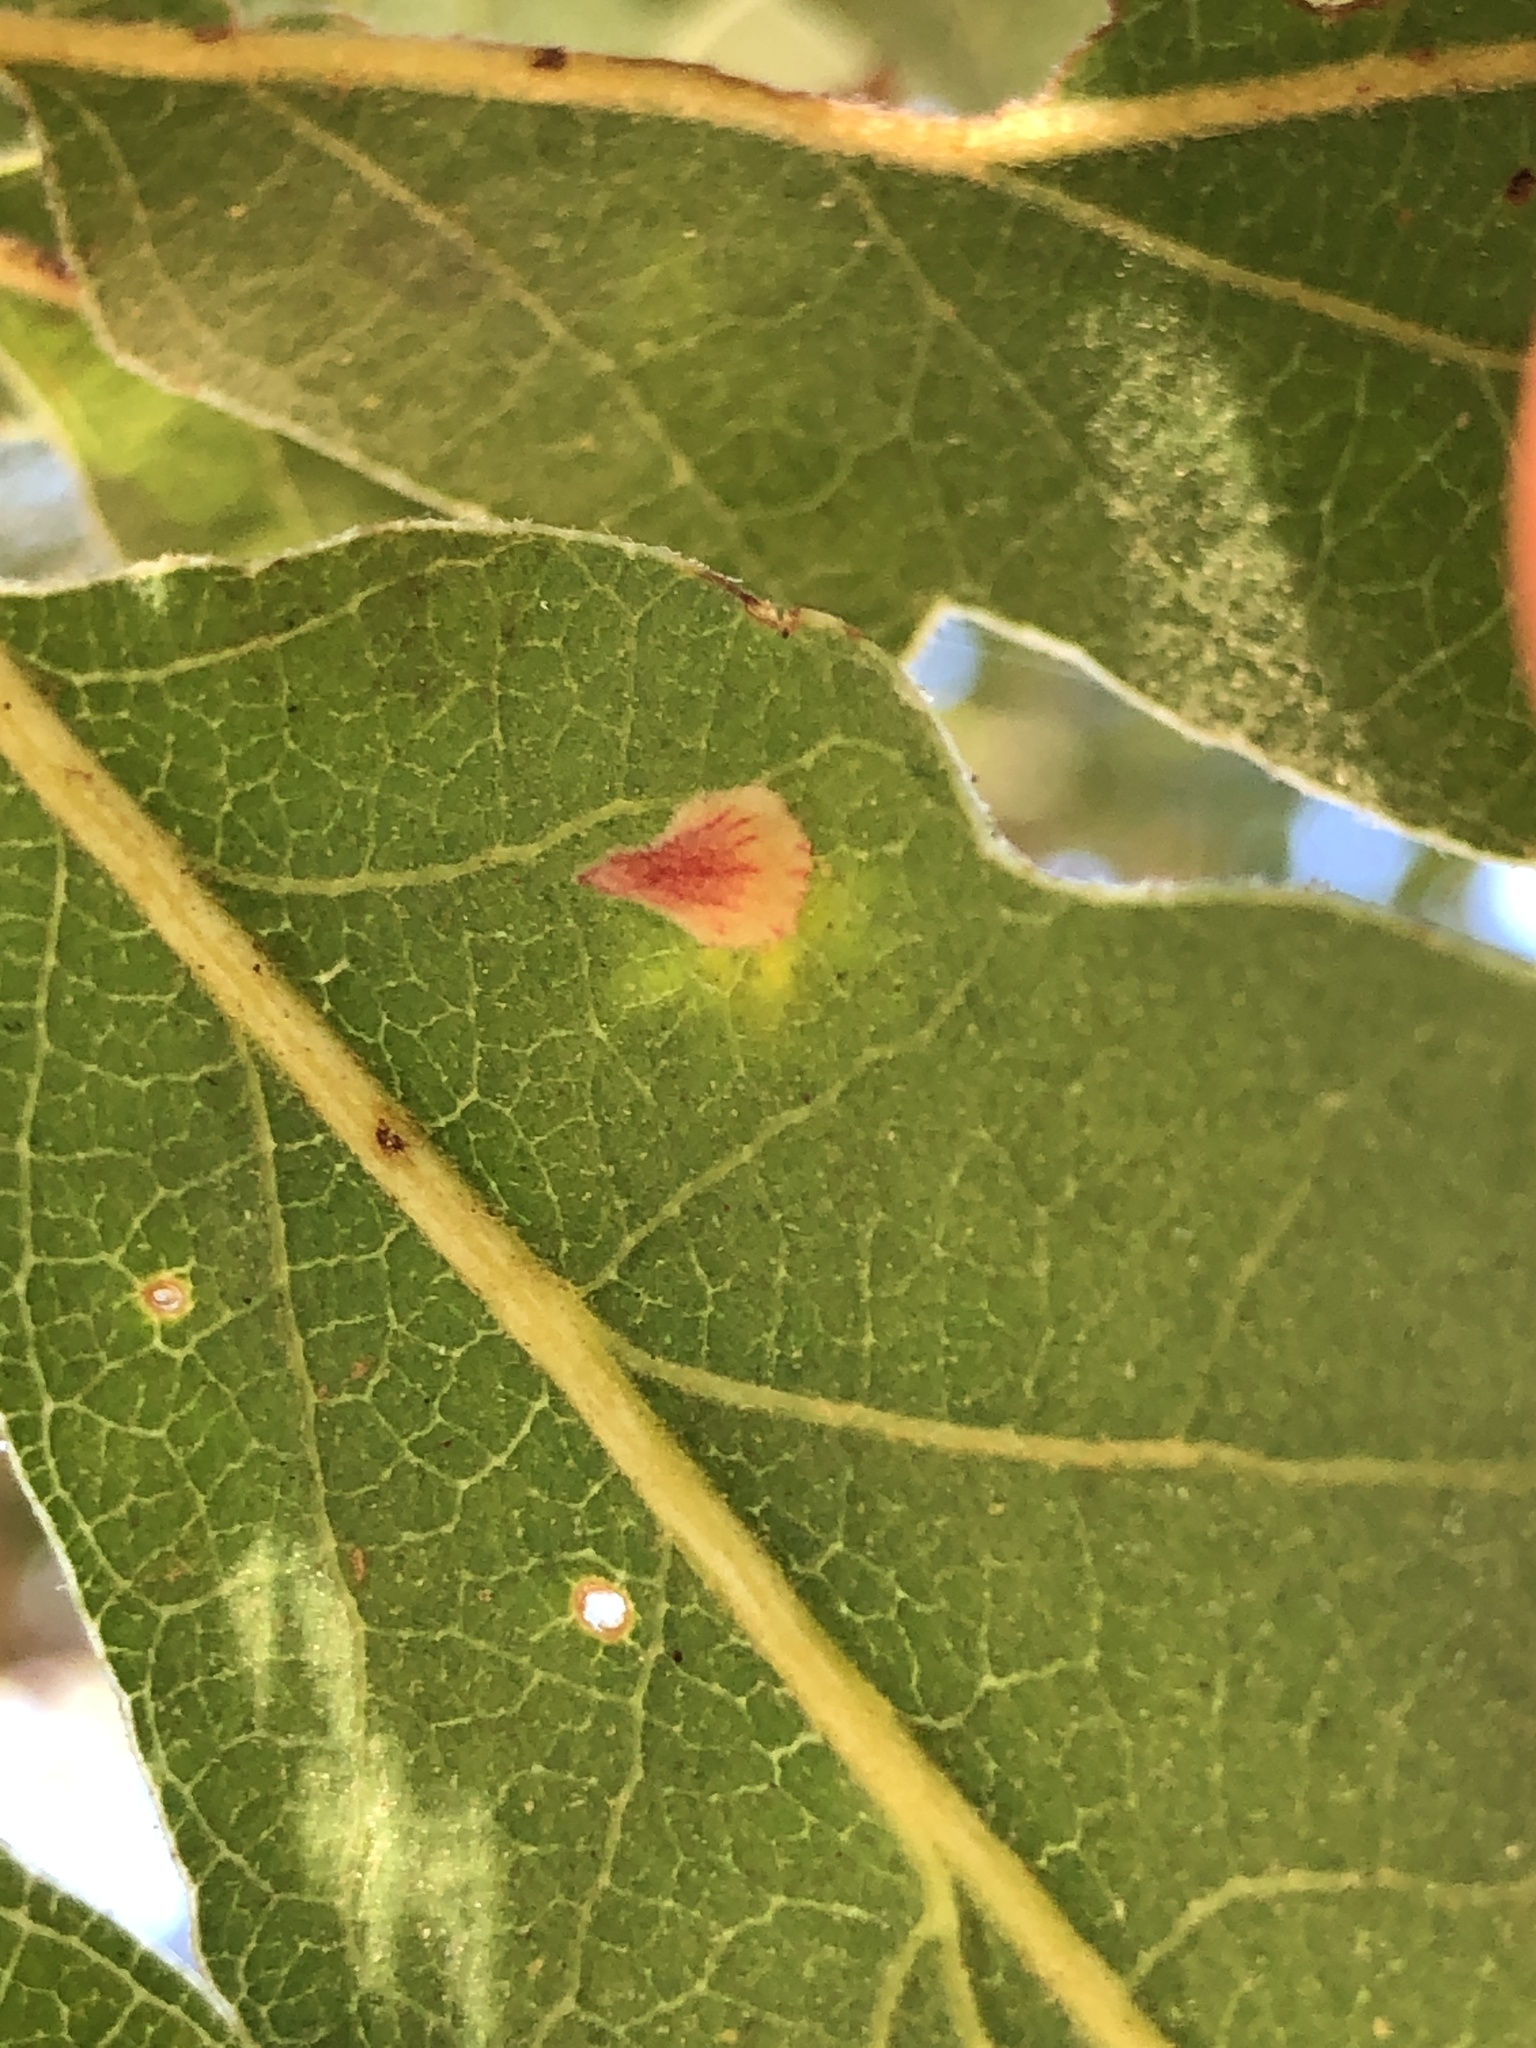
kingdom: Animalia
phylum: Arthropoda
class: Insecta
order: Hymenoptera
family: Cynipidae
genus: Andricus
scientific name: Andricus
